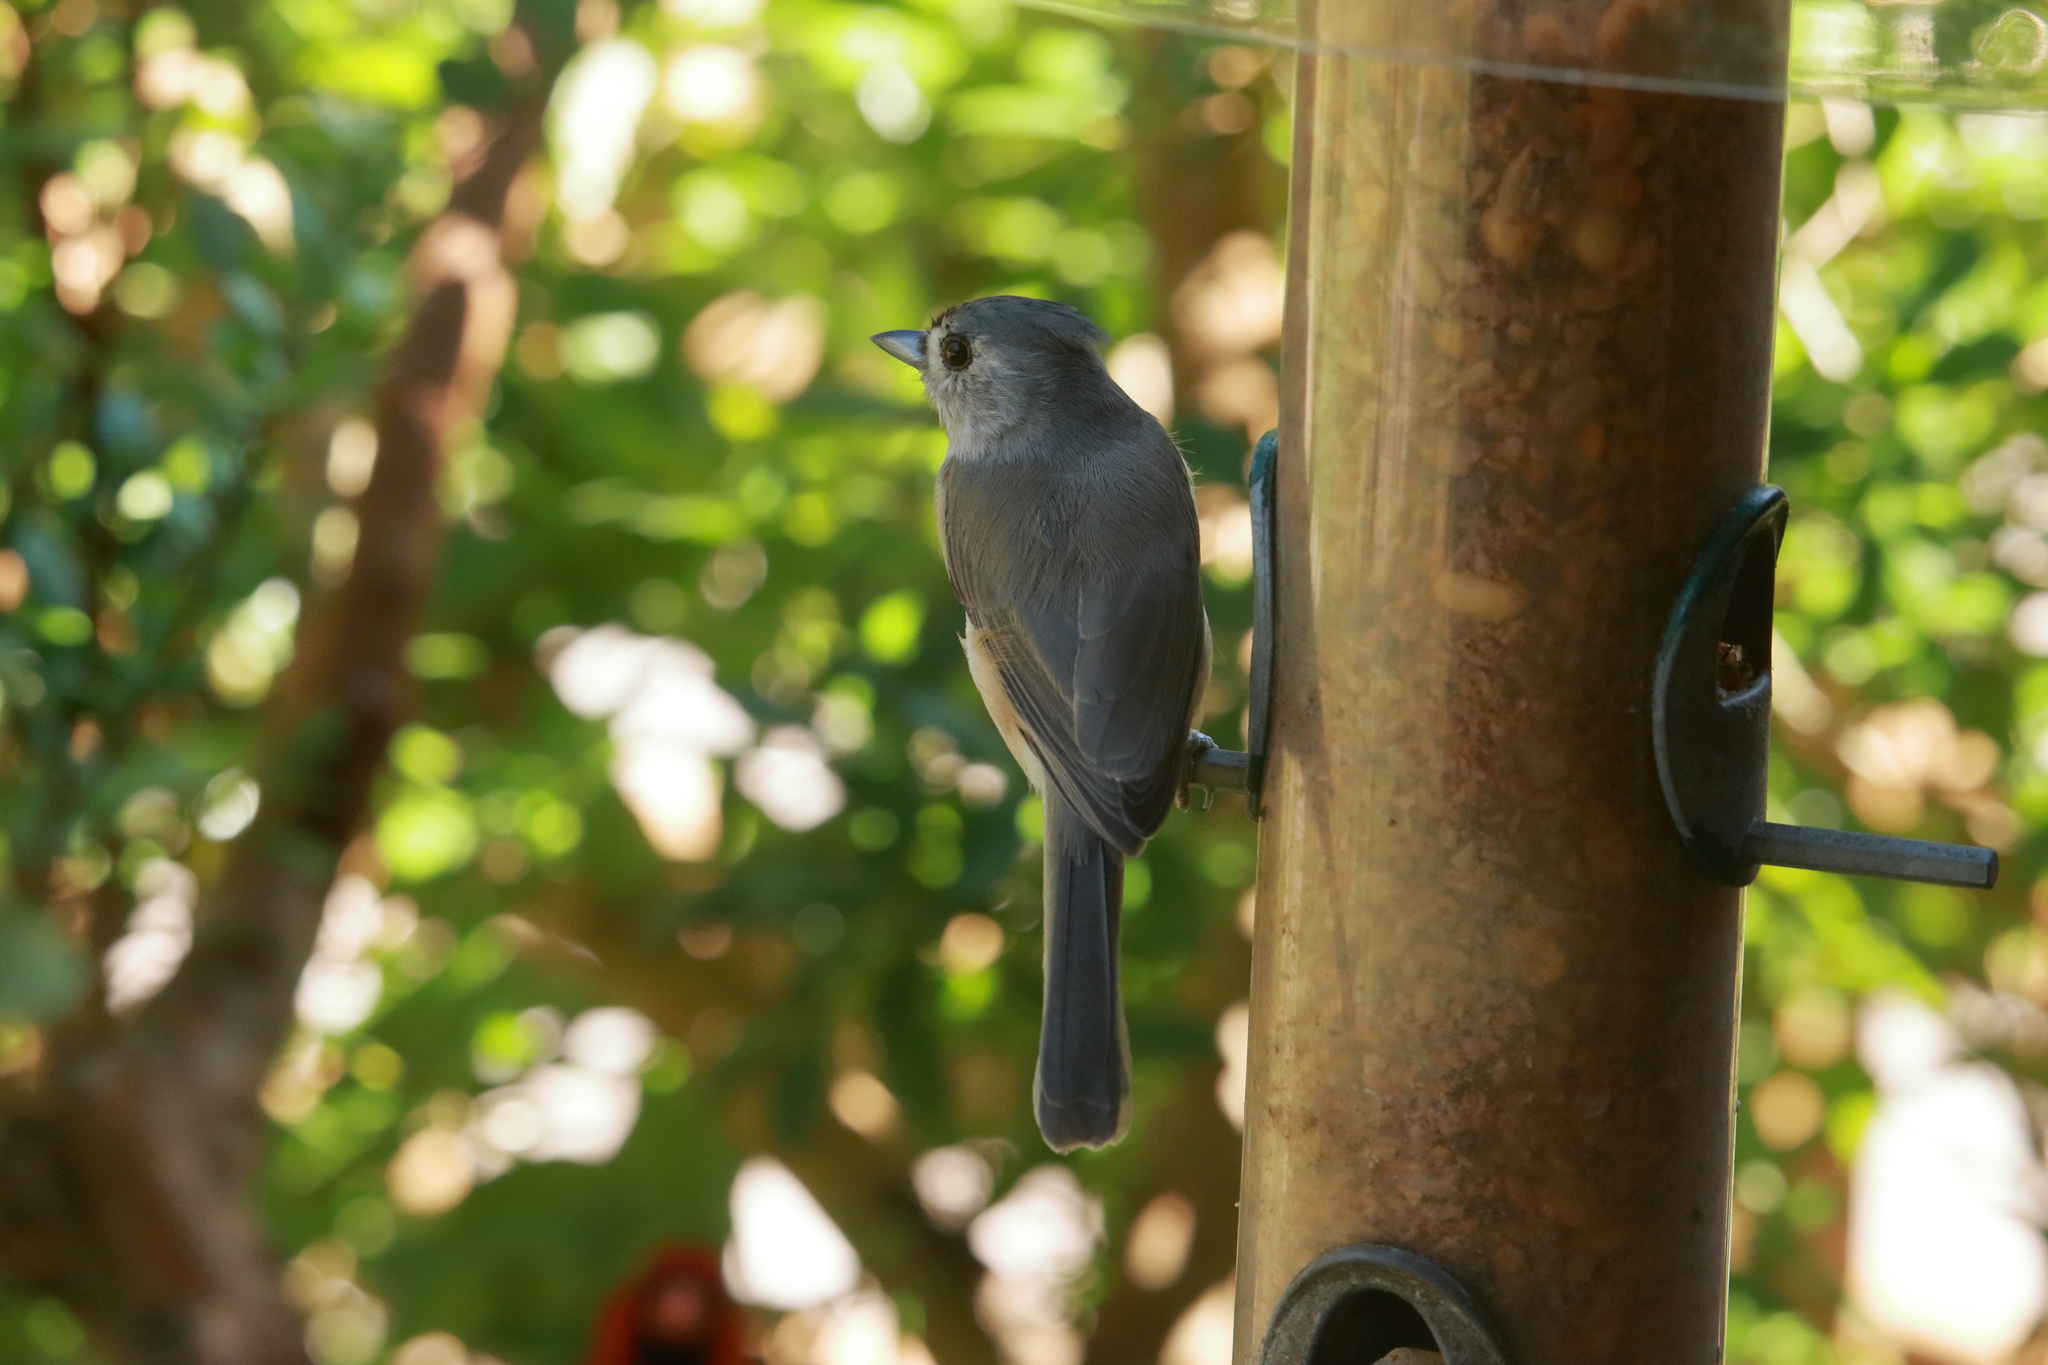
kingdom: Animalia
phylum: Chordata
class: Aves
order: Passeriformes
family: Paridae
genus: Baeolophus
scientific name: Baeolophus bicolor
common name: Tufted titmouse
